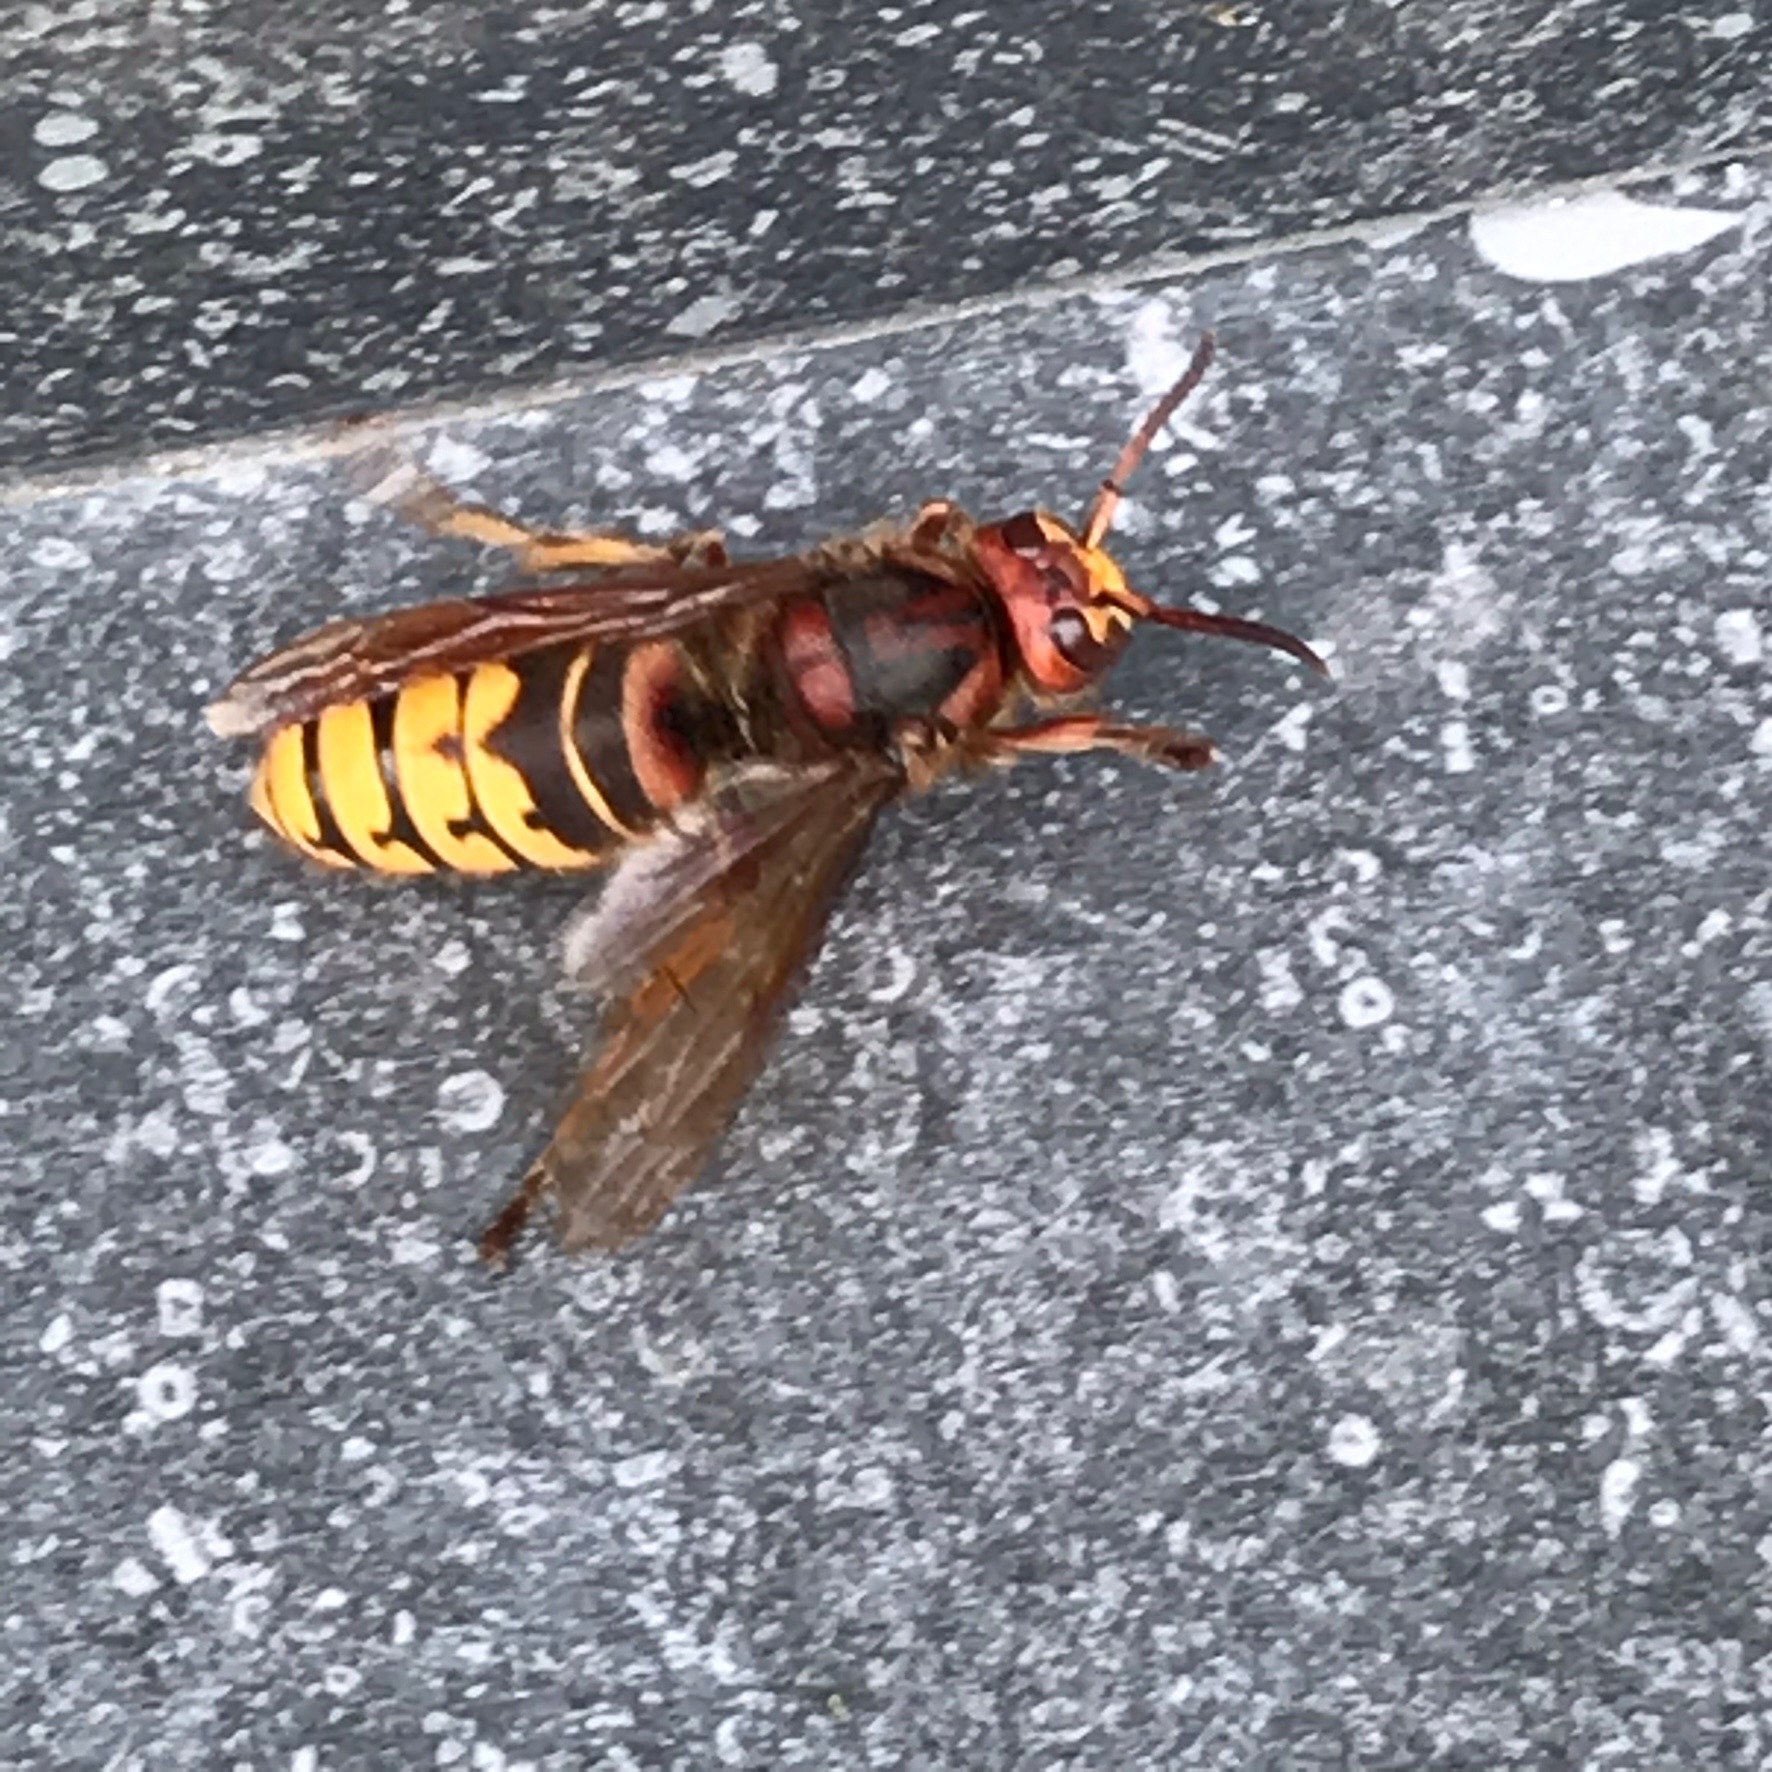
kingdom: Animalia
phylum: Arthropoda
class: Insecta
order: Hymenoptera
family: Vespidae
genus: Vespa
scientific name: Vespa crabro
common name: Hornet
